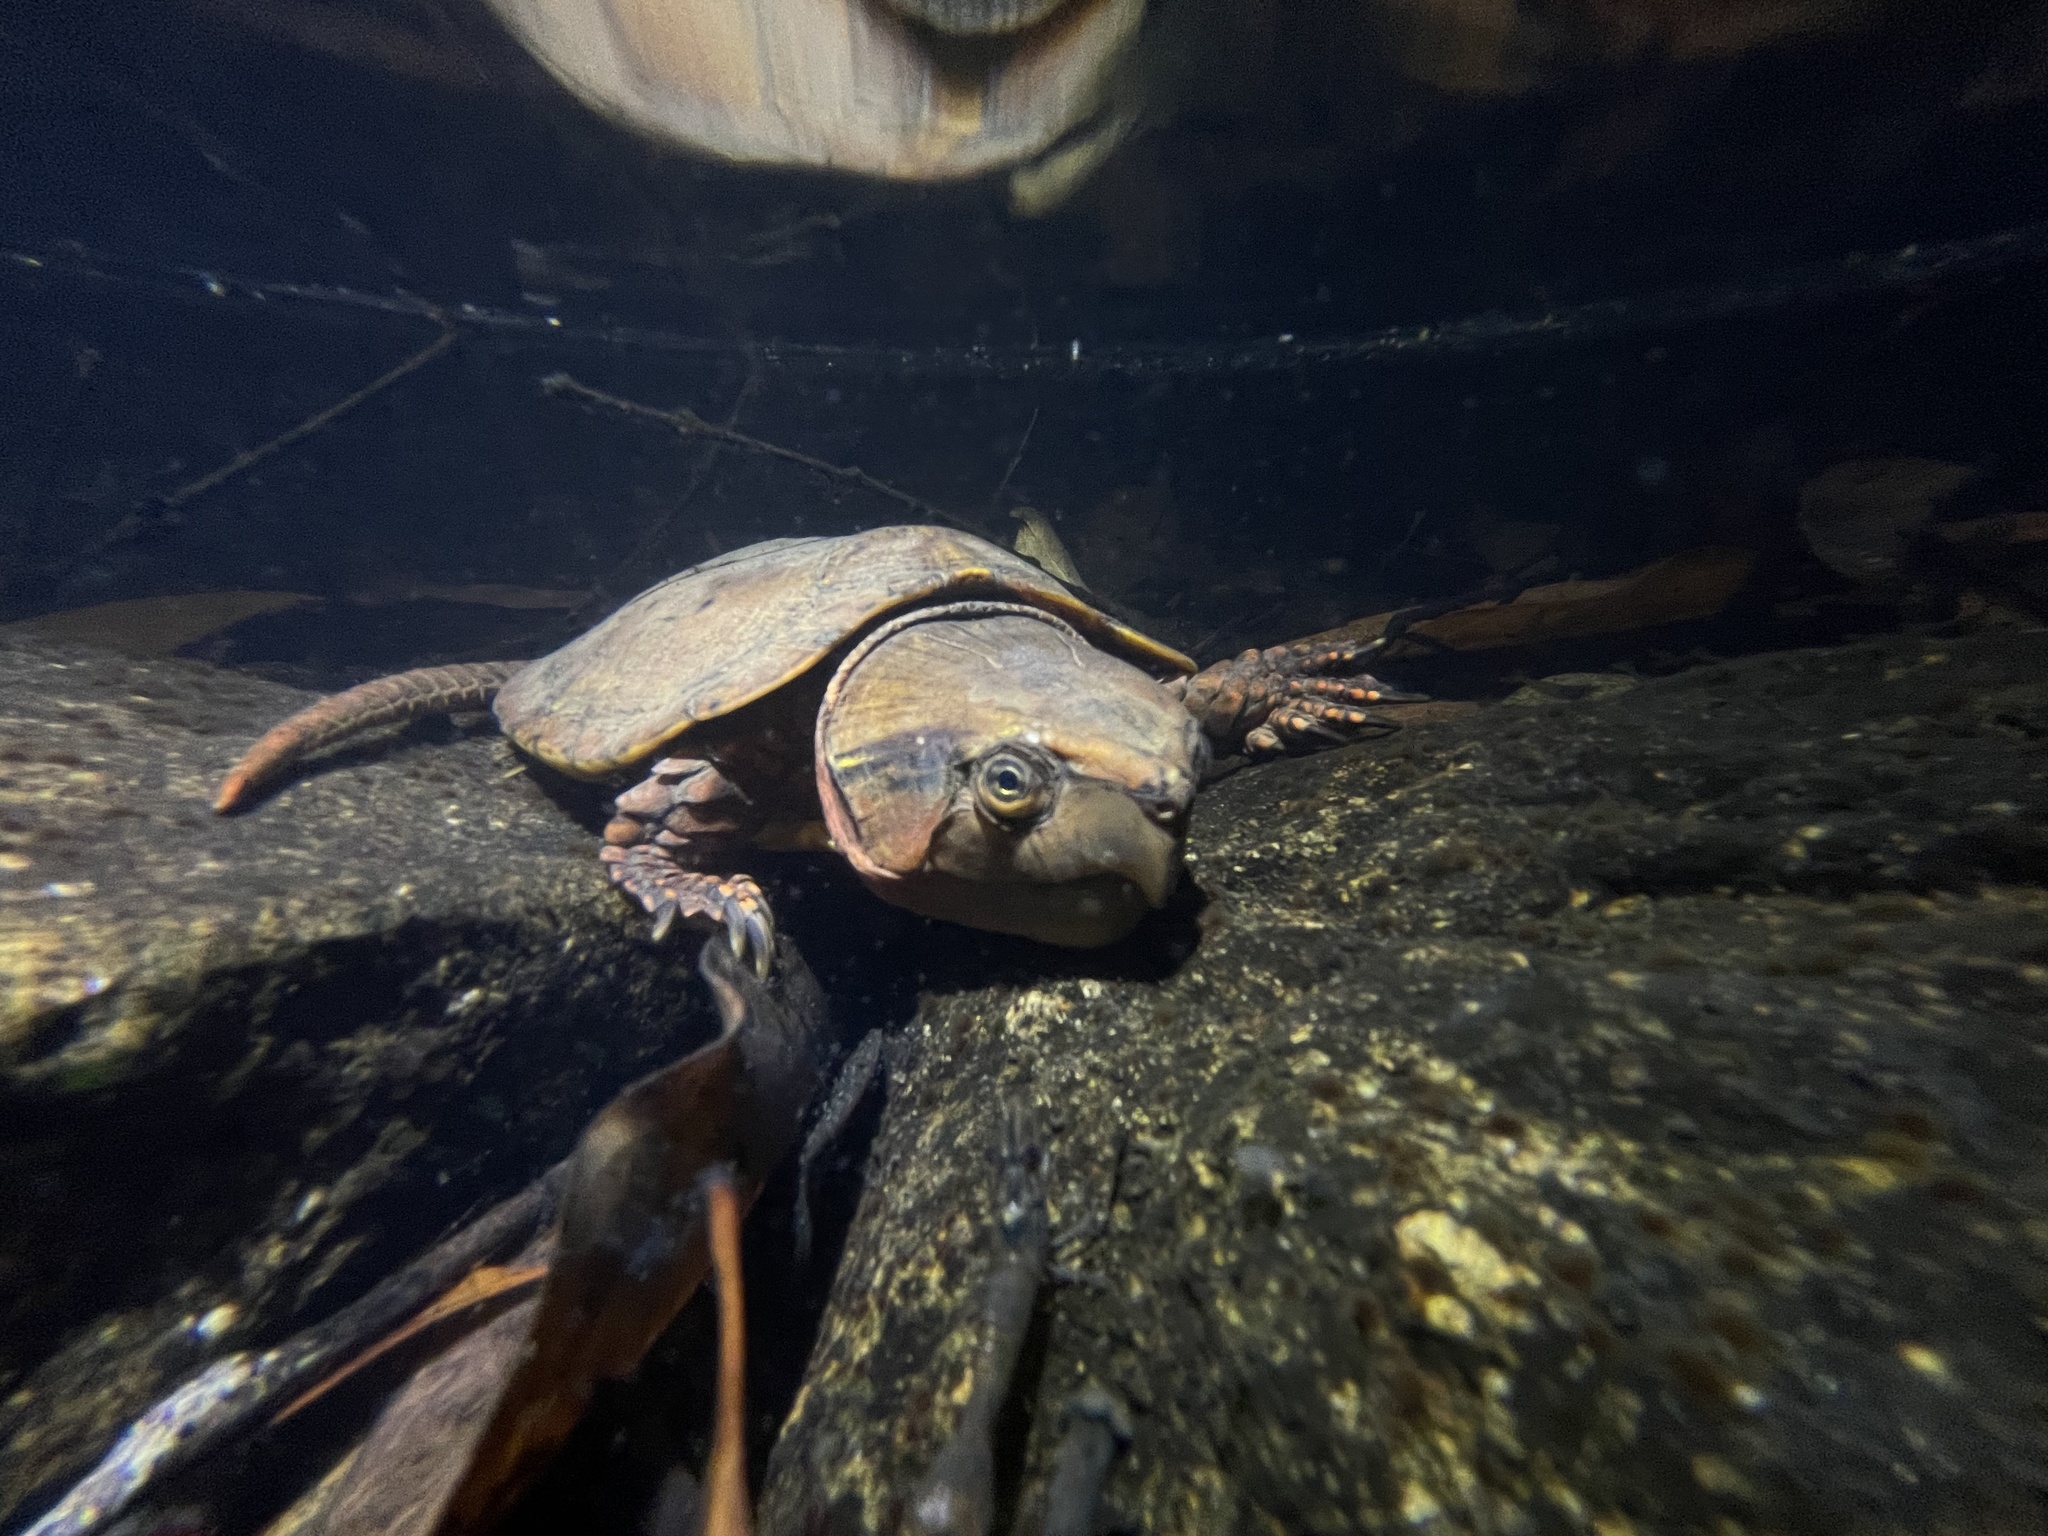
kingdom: Animalia
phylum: Chordata
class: Testudines
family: Platysternidae
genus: Platysternon
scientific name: Platysternon megacephalum
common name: Big-headed turtle
